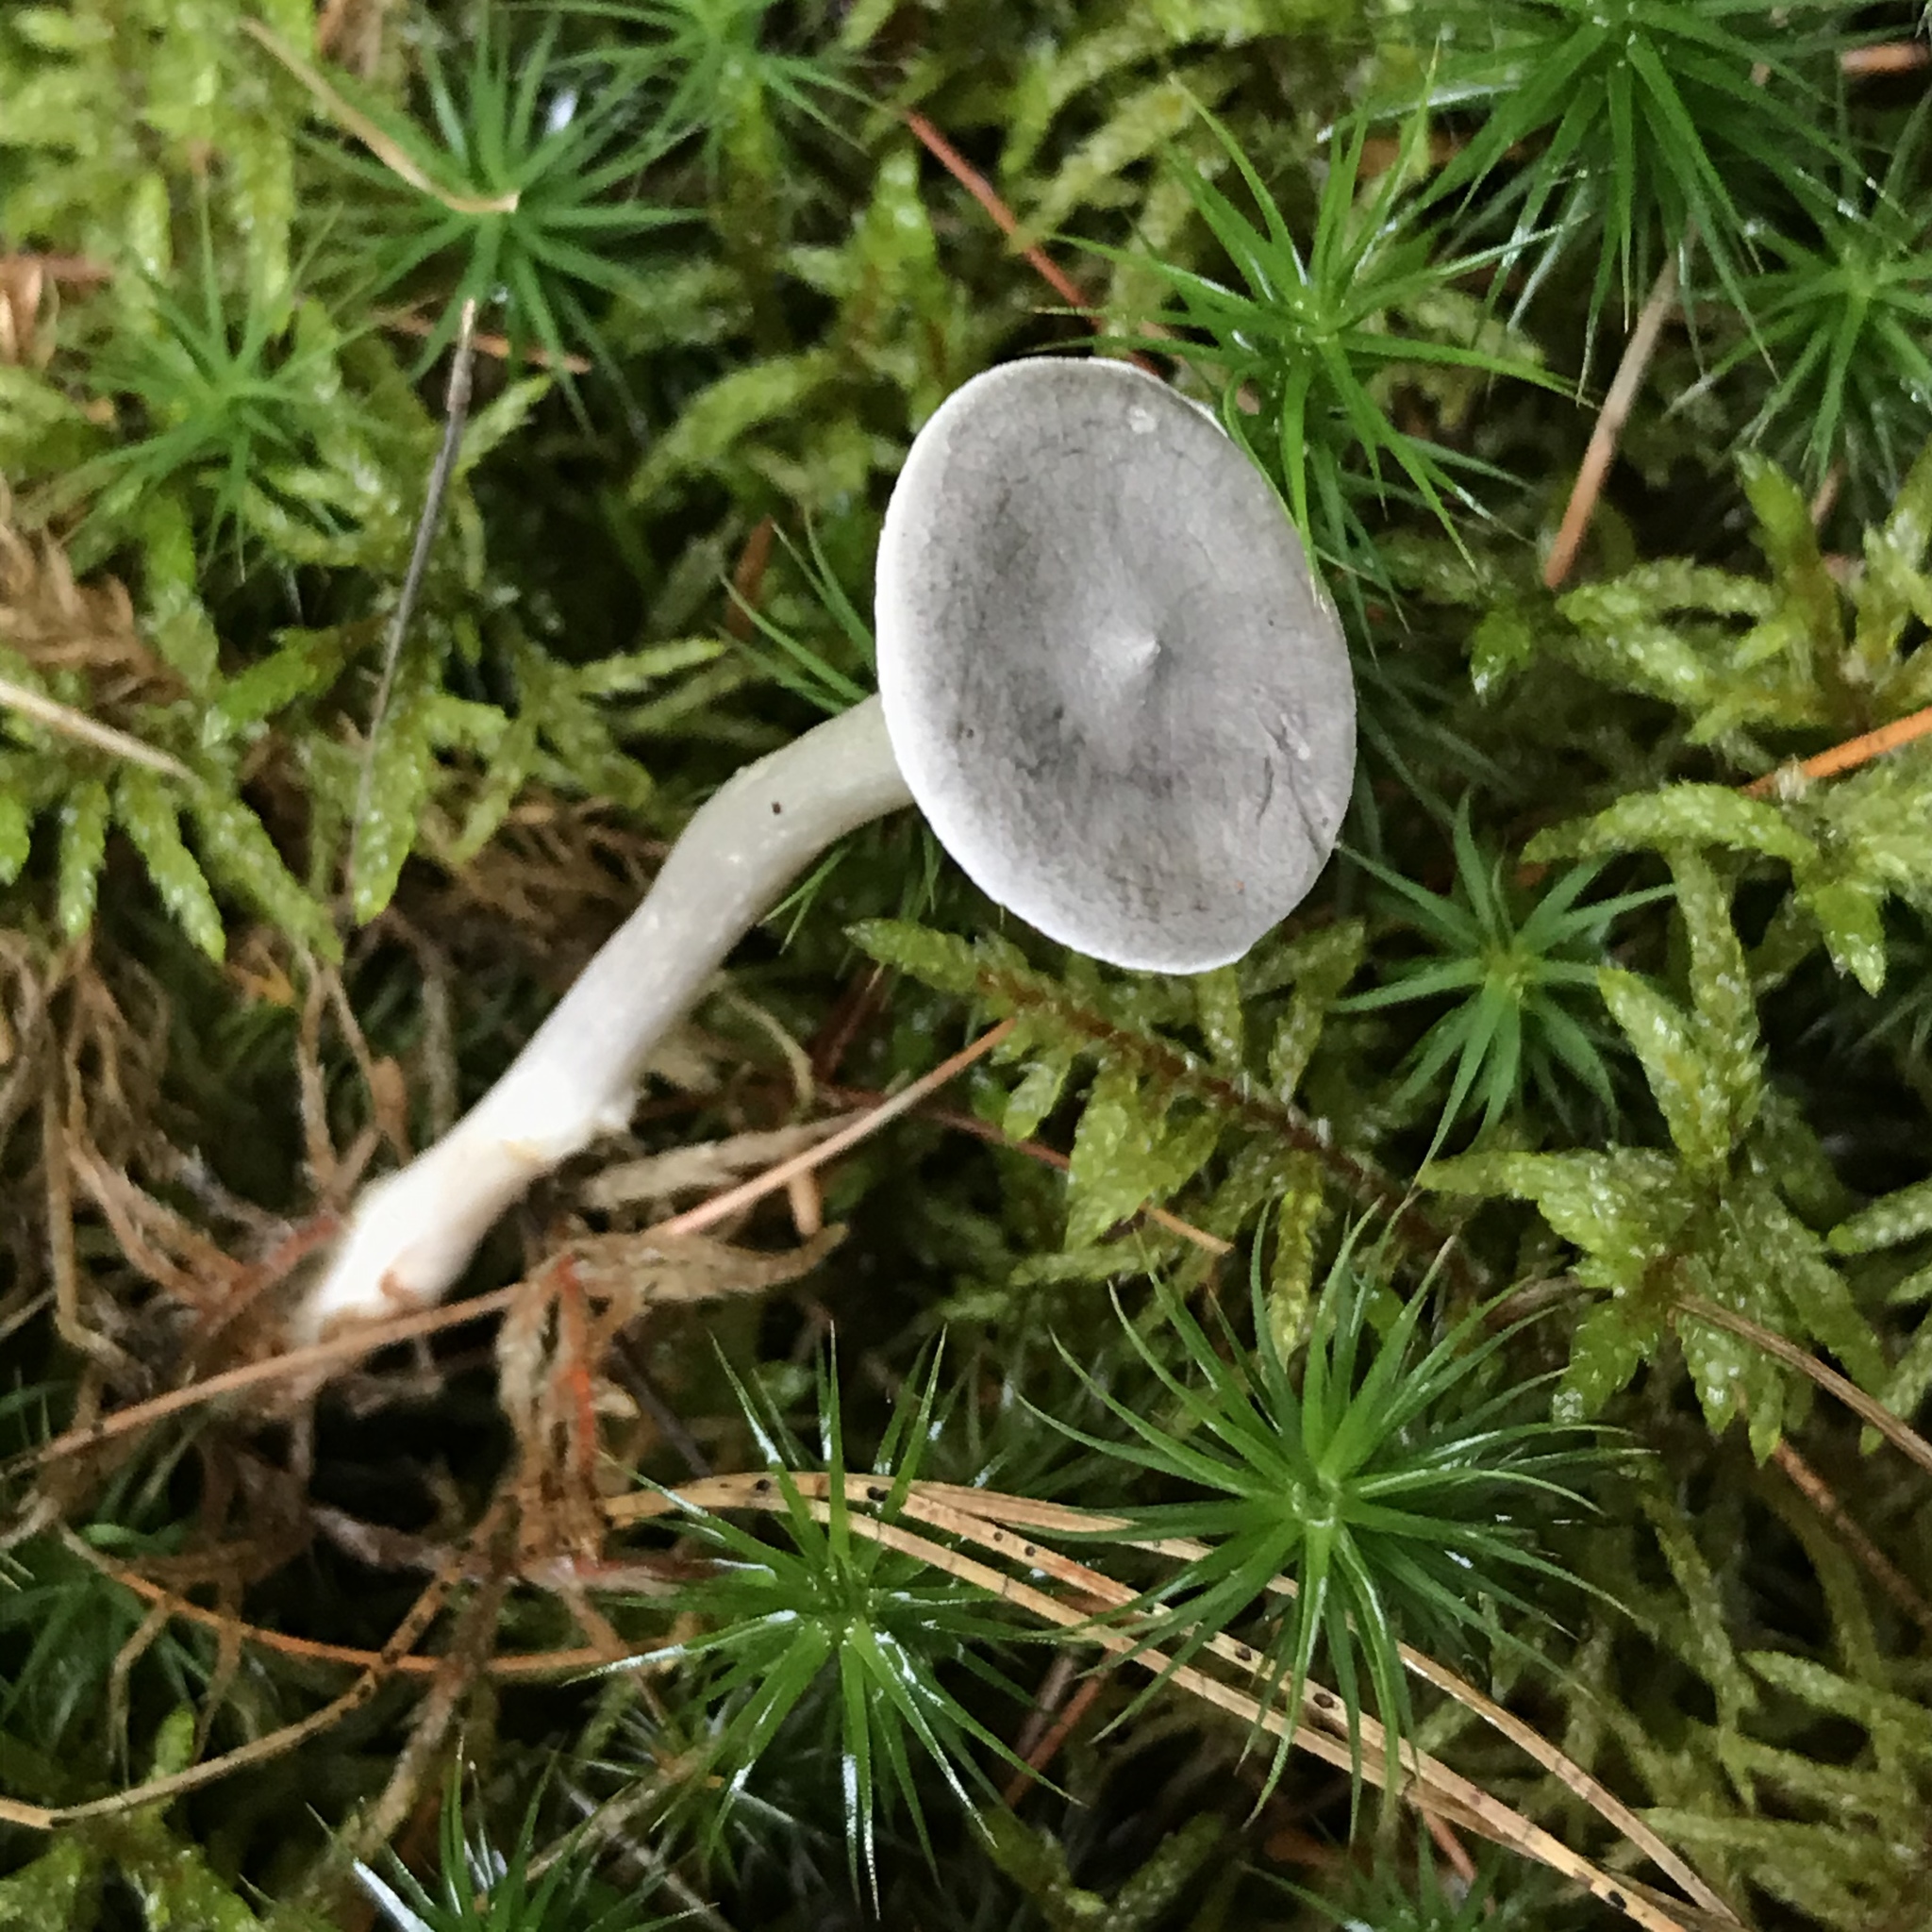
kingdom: Fungi
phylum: Basidiomycota
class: Agaricomycetes
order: Agaricales
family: Hygrophoraceae
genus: Cantharellula
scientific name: Cantharellula umbonata
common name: The humpback
